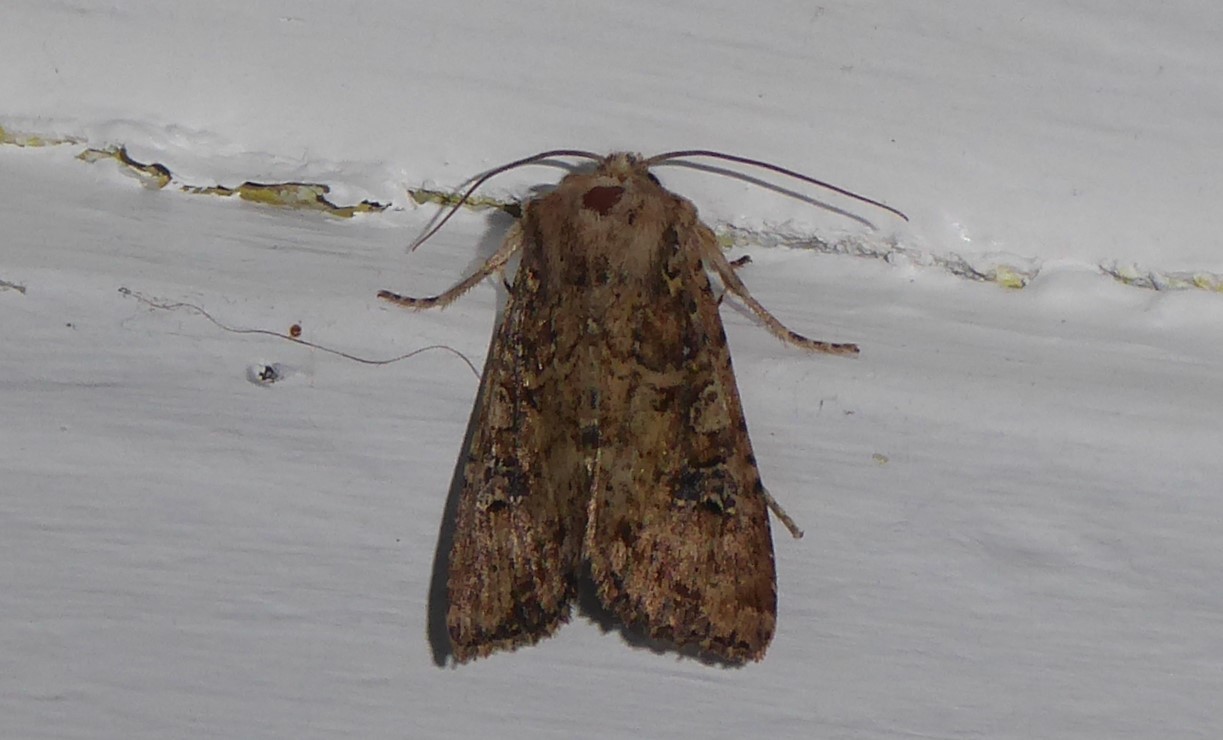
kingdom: Animalia
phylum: Arthropoda
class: Insecta
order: Lepidoptera
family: Noctuidae
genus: Ichneutica
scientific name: Ichneutica morosa
